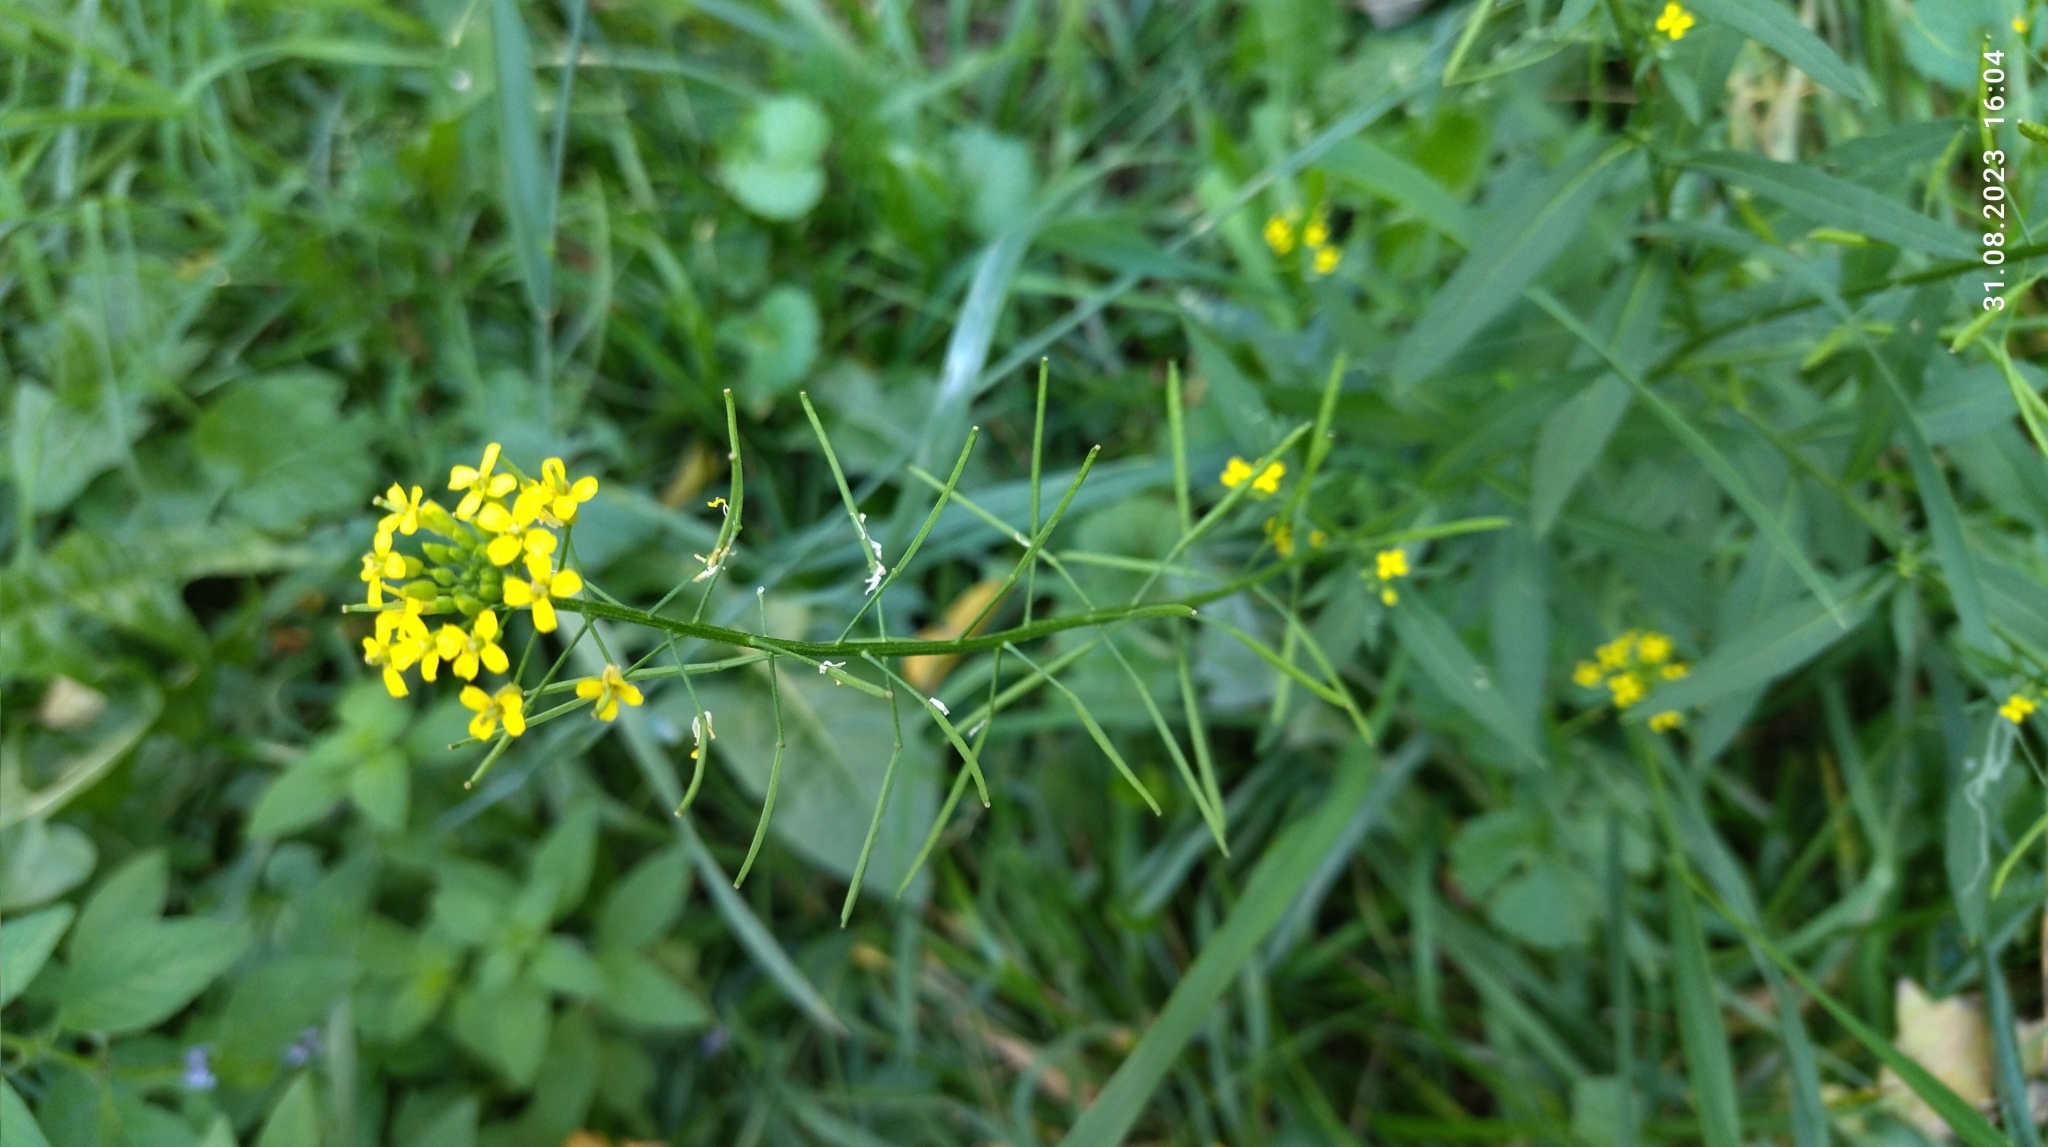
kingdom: Plantae
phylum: Tracheophyta
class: Magnoliopsida
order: Brassicales
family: Brassicaceae
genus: Erysimum
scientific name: Erysimum cheiranthoides
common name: Treacle mustard
